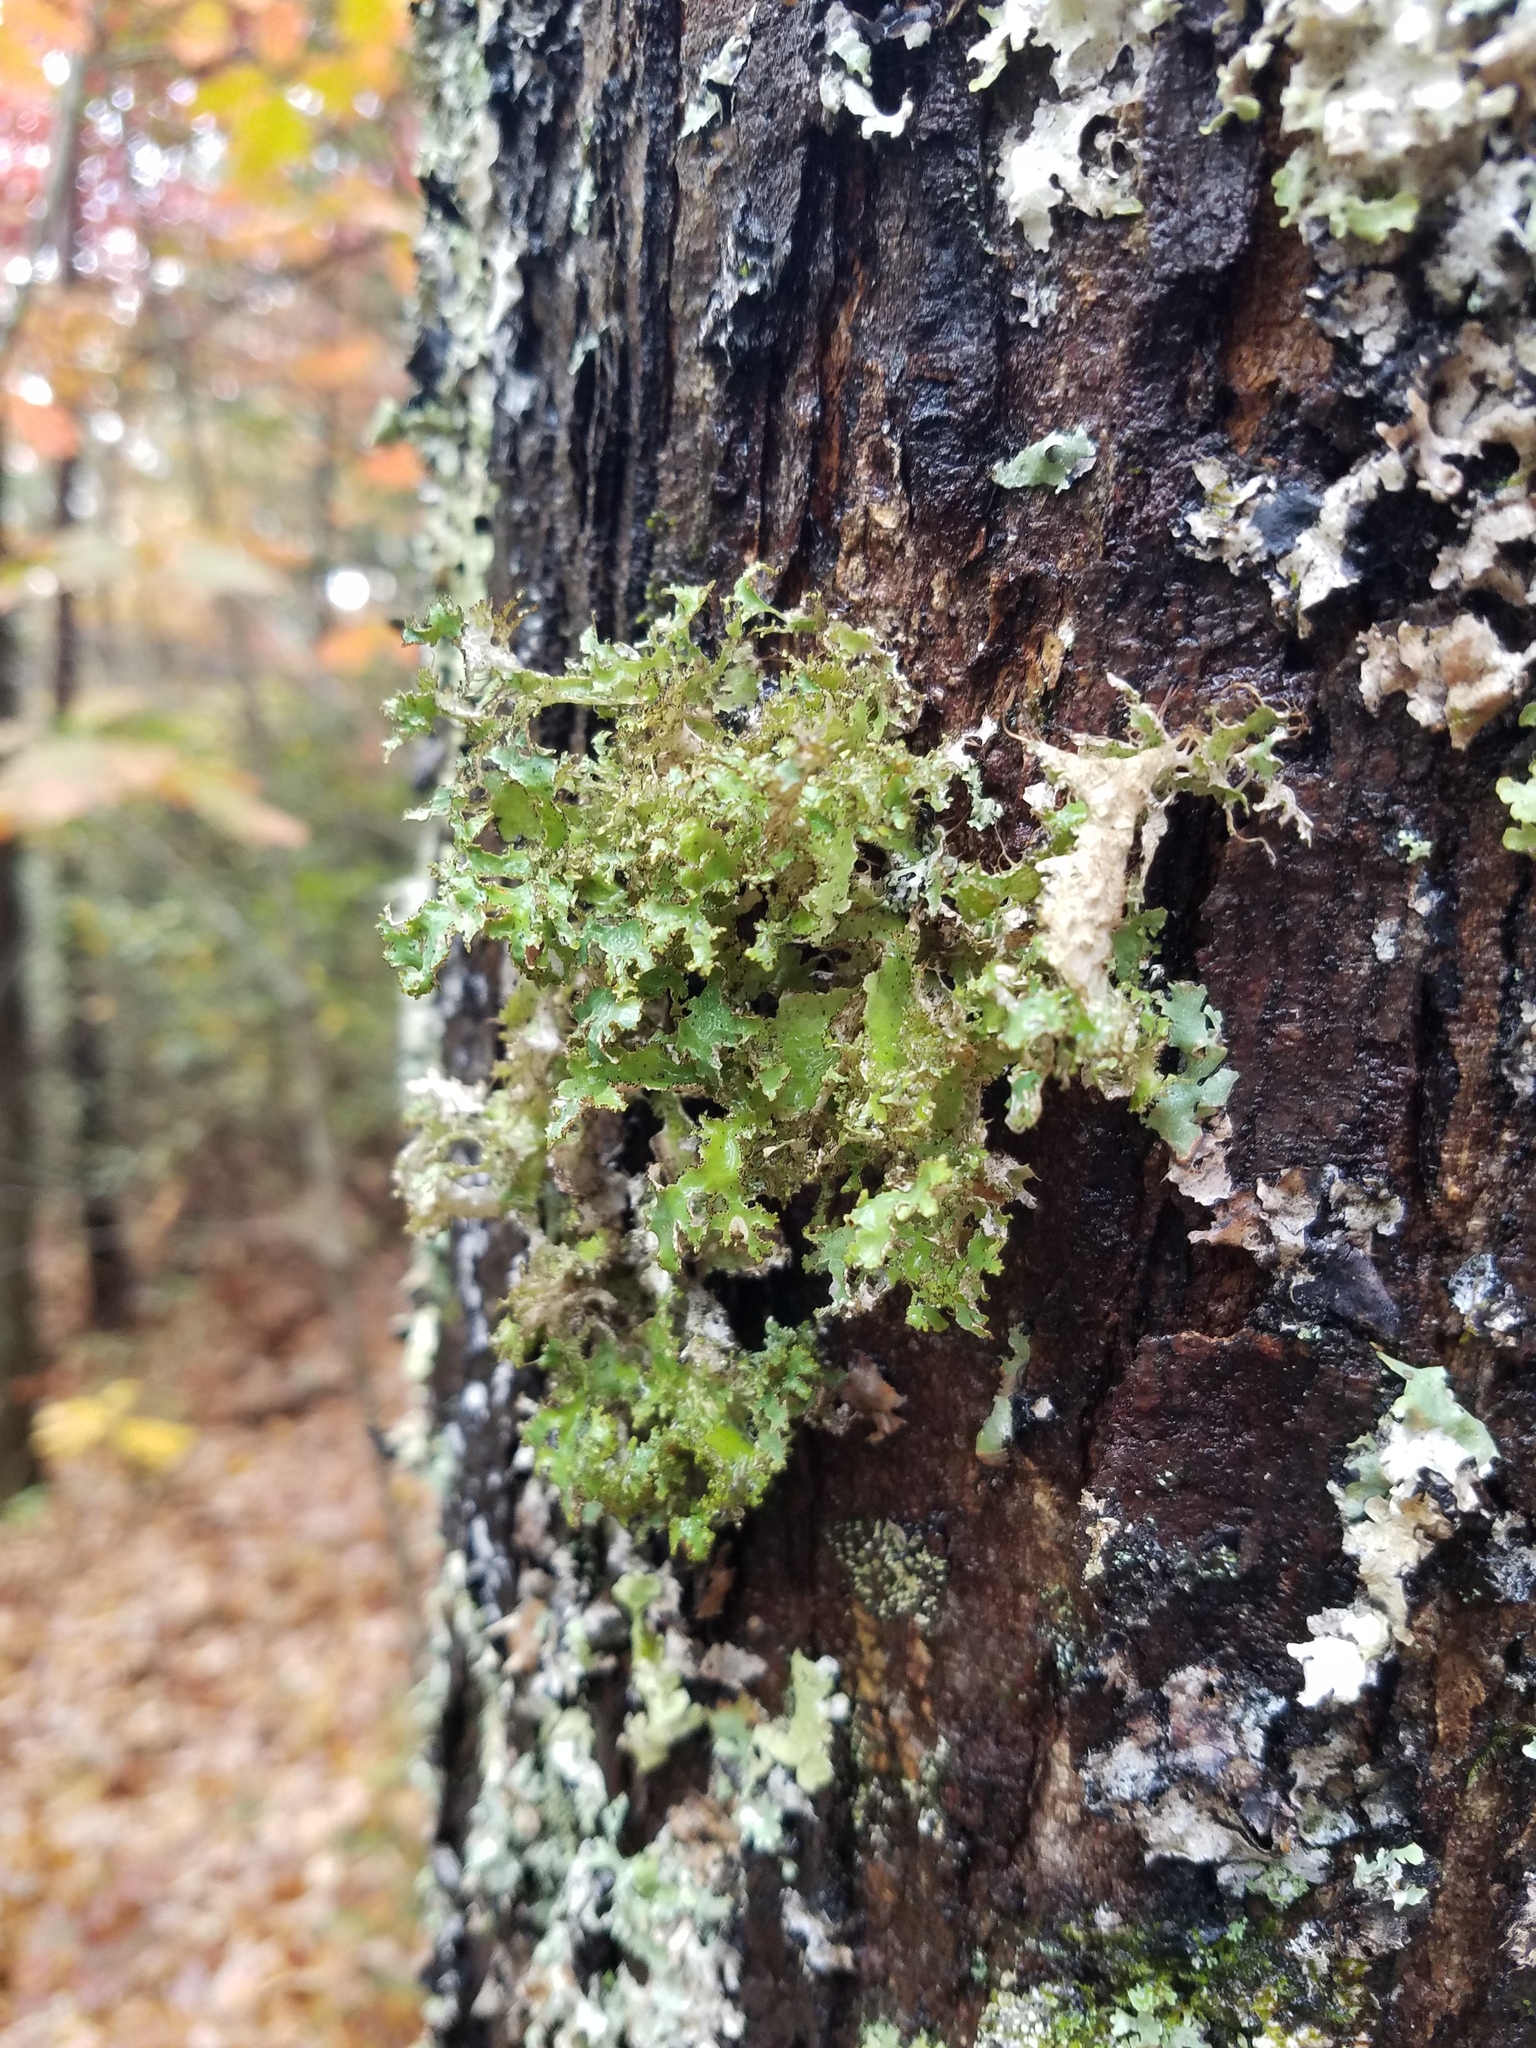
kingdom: Fungi
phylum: Ascomycota
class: Lecanoromycetes
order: Lecanorales
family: Parmeliaceae
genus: Tuckermannopsis
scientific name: Tuckermannopsis ciliaris
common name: Ciliate wrinkle-lichen
